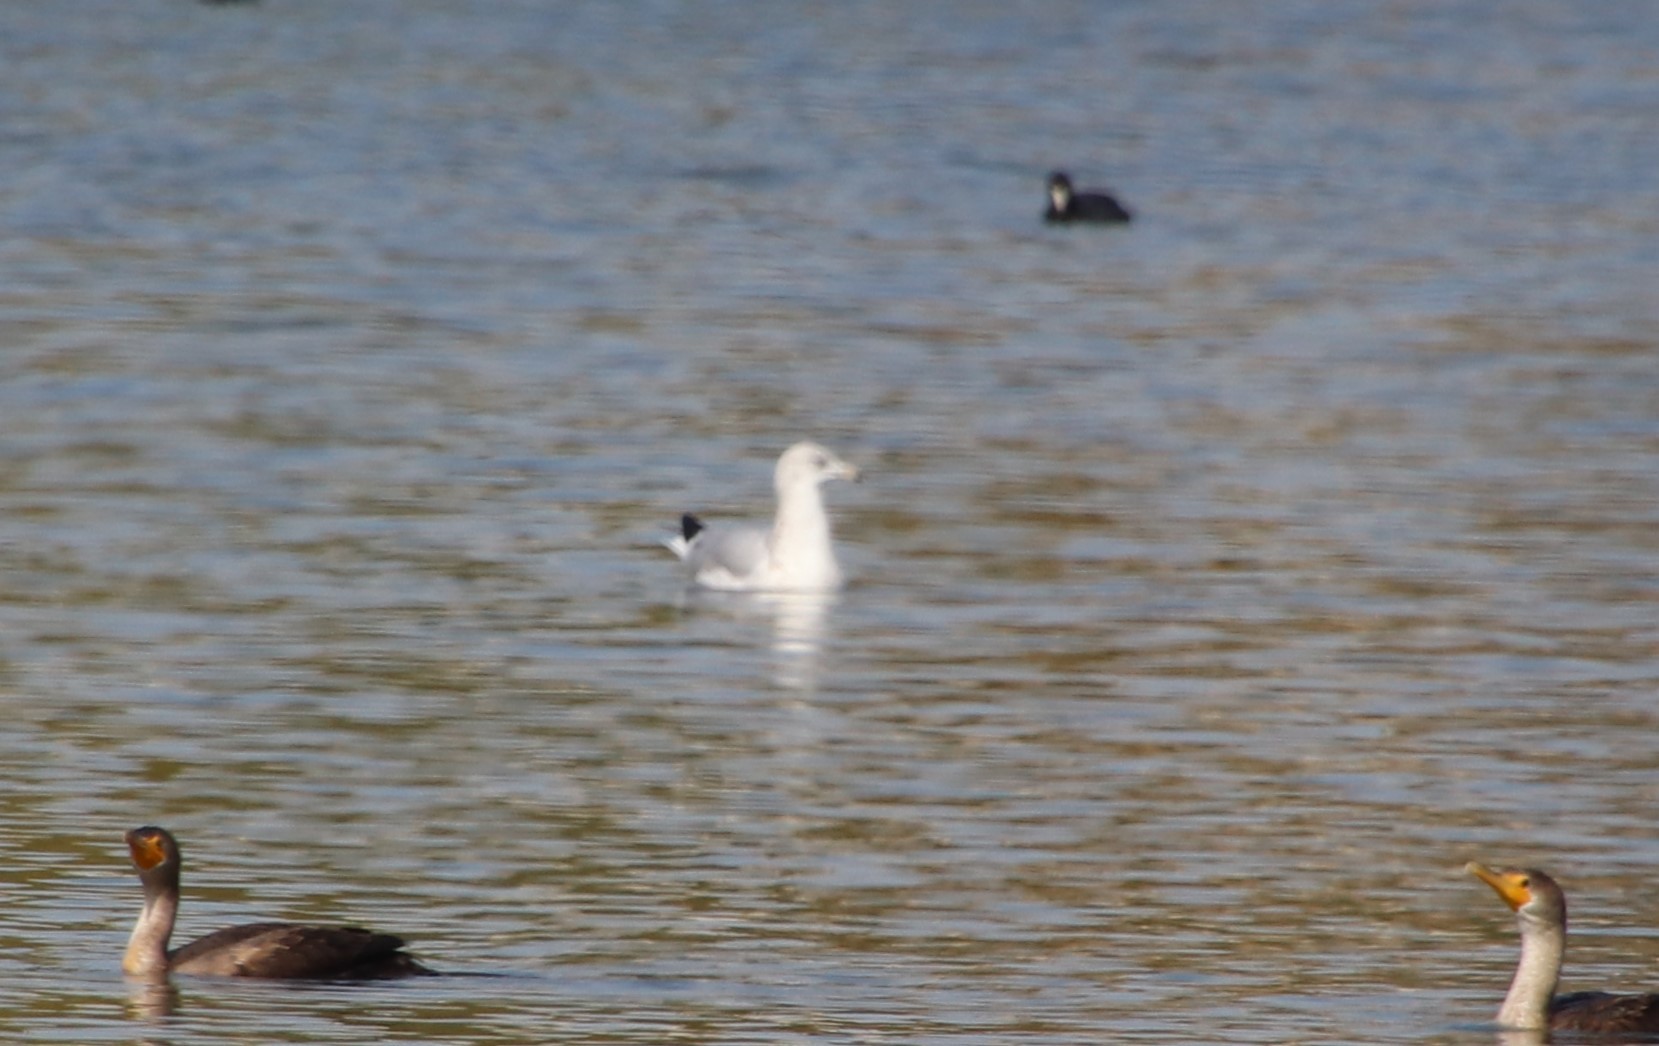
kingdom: Animalia
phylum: Chordata
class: Aves
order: Charadriiformes
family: Laridae
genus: Larus
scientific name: Larus delawarensis
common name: Ring-billed gull
